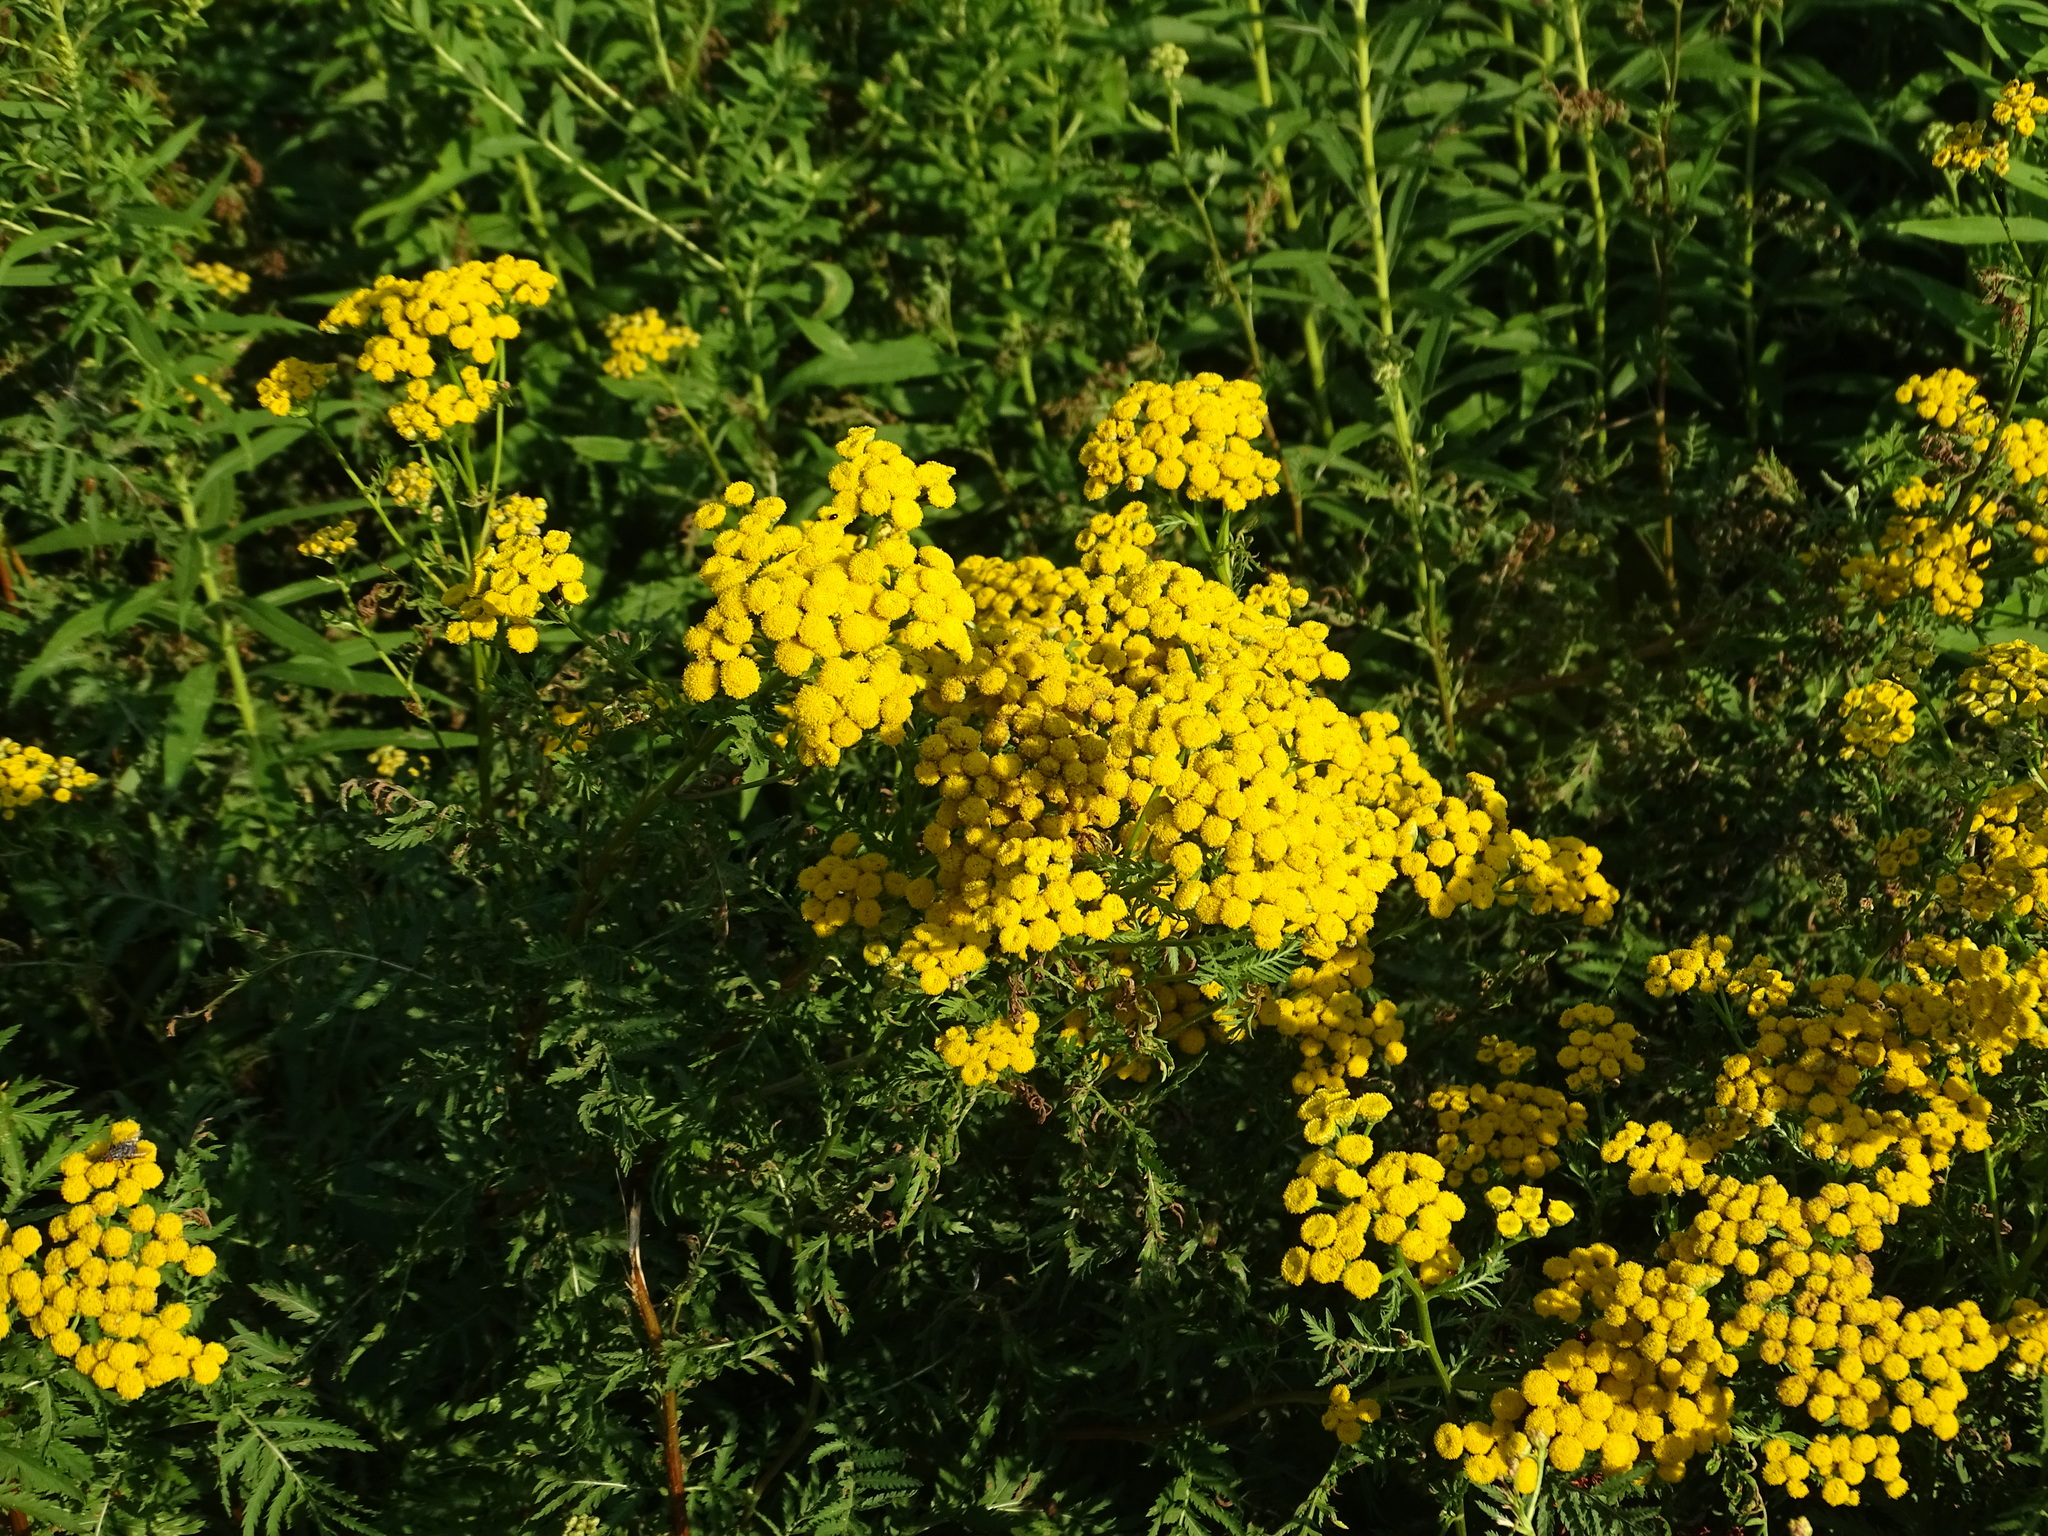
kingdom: Plantae
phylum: Tracheophyta
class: Magnoliopsida
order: Asterales
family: Asteraceae
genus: Tanacetum
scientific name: Tanacetum vulgare
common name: Common tansy
